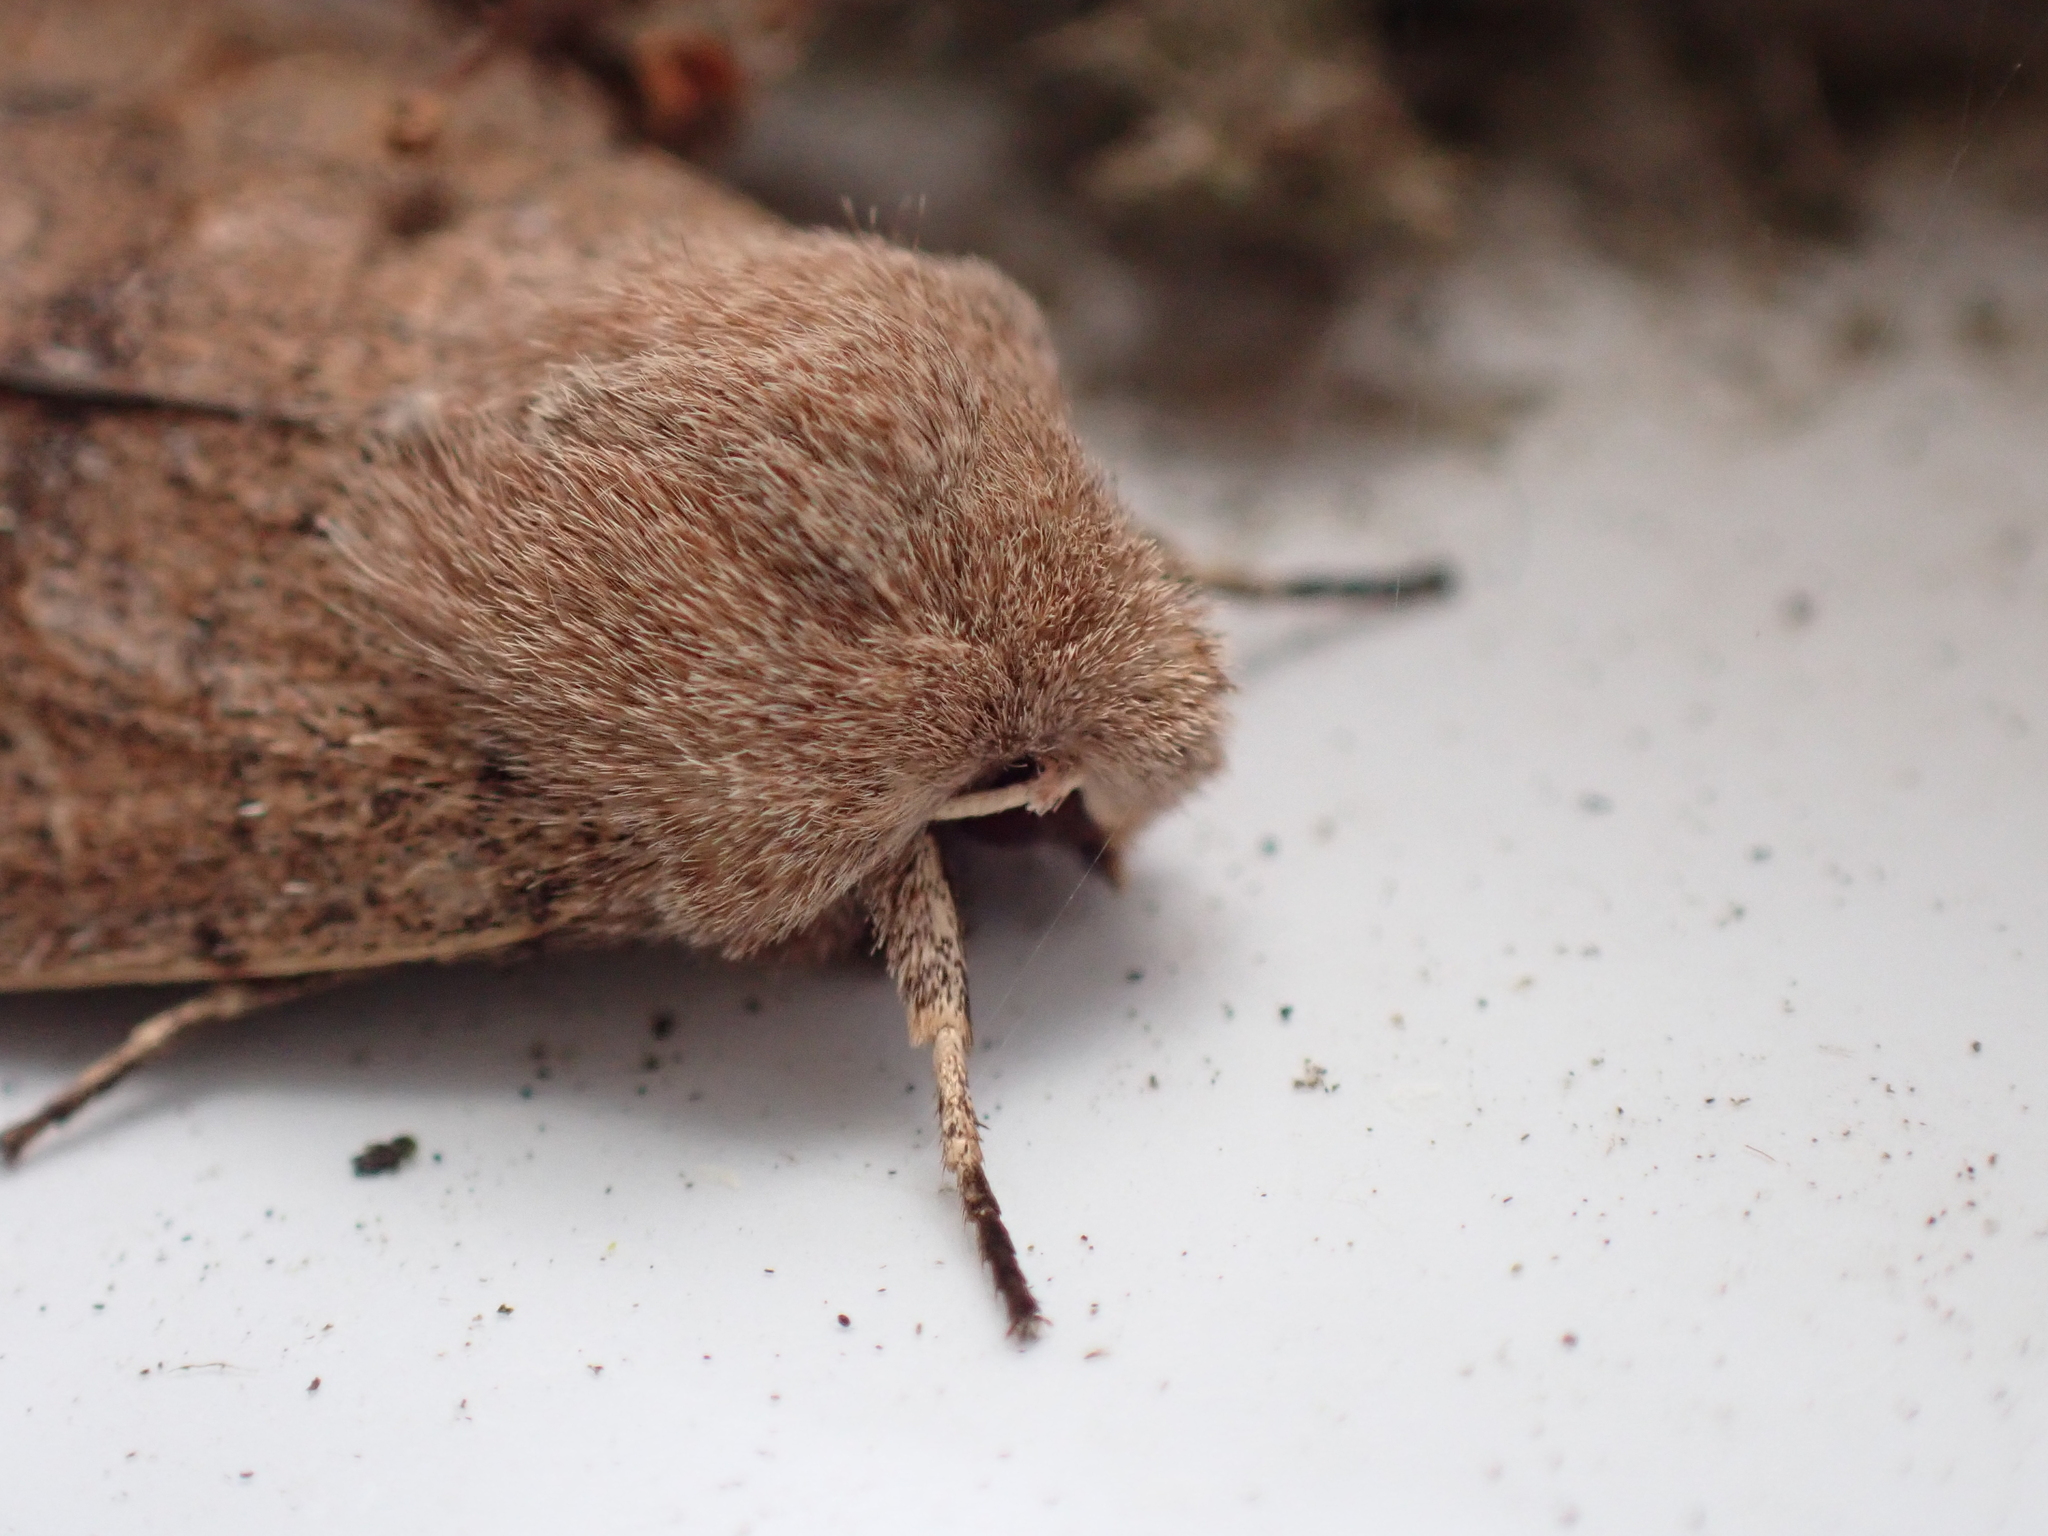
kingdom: Animalia
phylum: Arthropoda
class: Insecta
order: Lepidoptera
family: Noctuidae
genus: Orthosia
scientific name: Orthosia cerasi
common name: Common quaker
